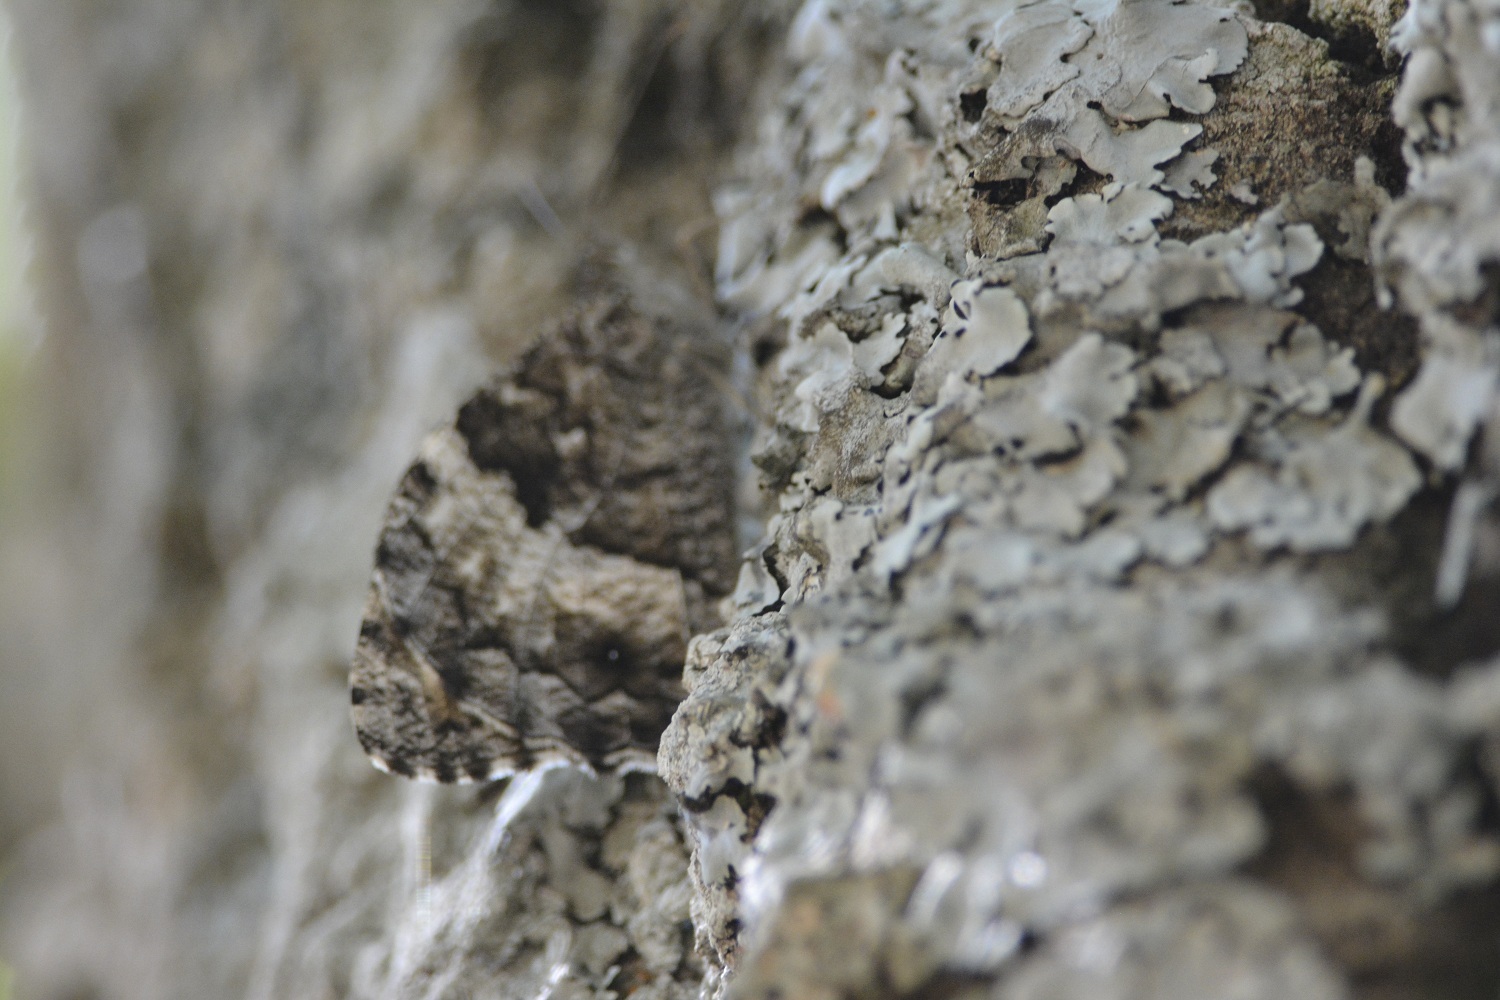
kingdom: Animalia
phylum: Arthropoda
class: Insecta
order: Lepidoptera
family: Nymphalidae
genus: Hipparchia
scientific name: Hipparchia ellena
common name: Algerian grayling
